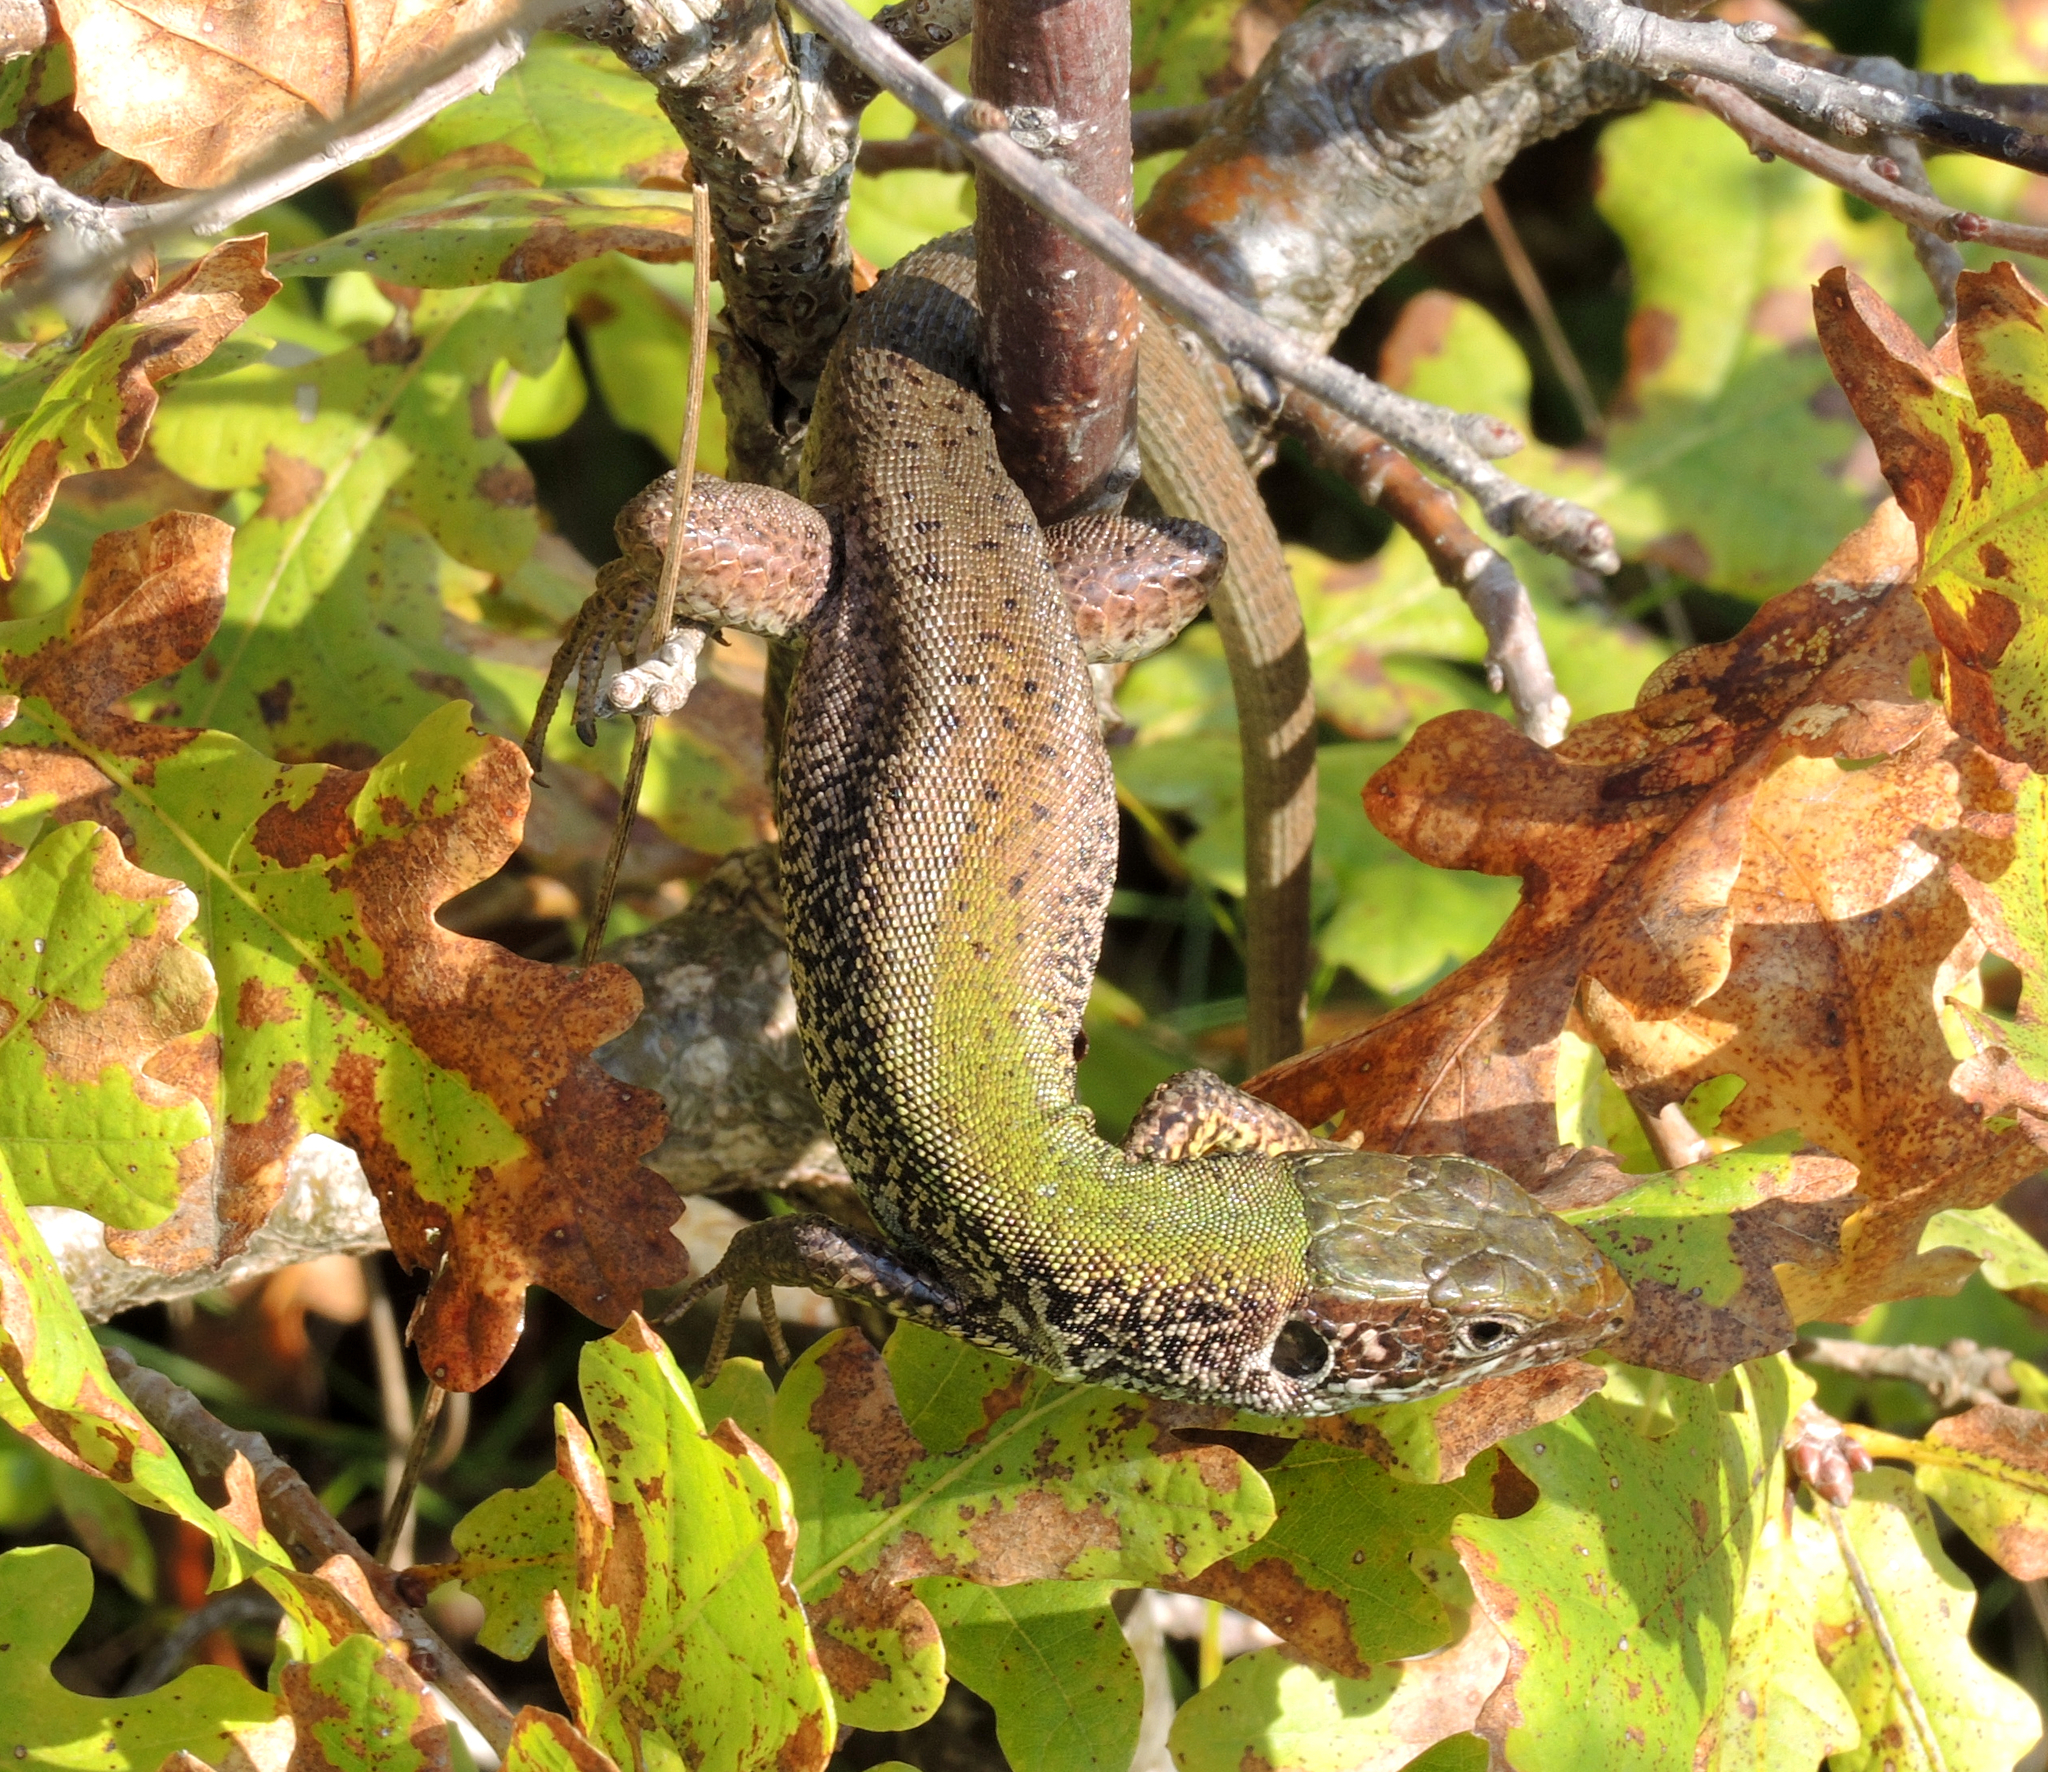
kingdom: Animalia
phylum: Chordata
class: Squamata
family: Lacertidae
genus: Lacerta
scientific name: Lacerta viridis
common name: European green lizard
